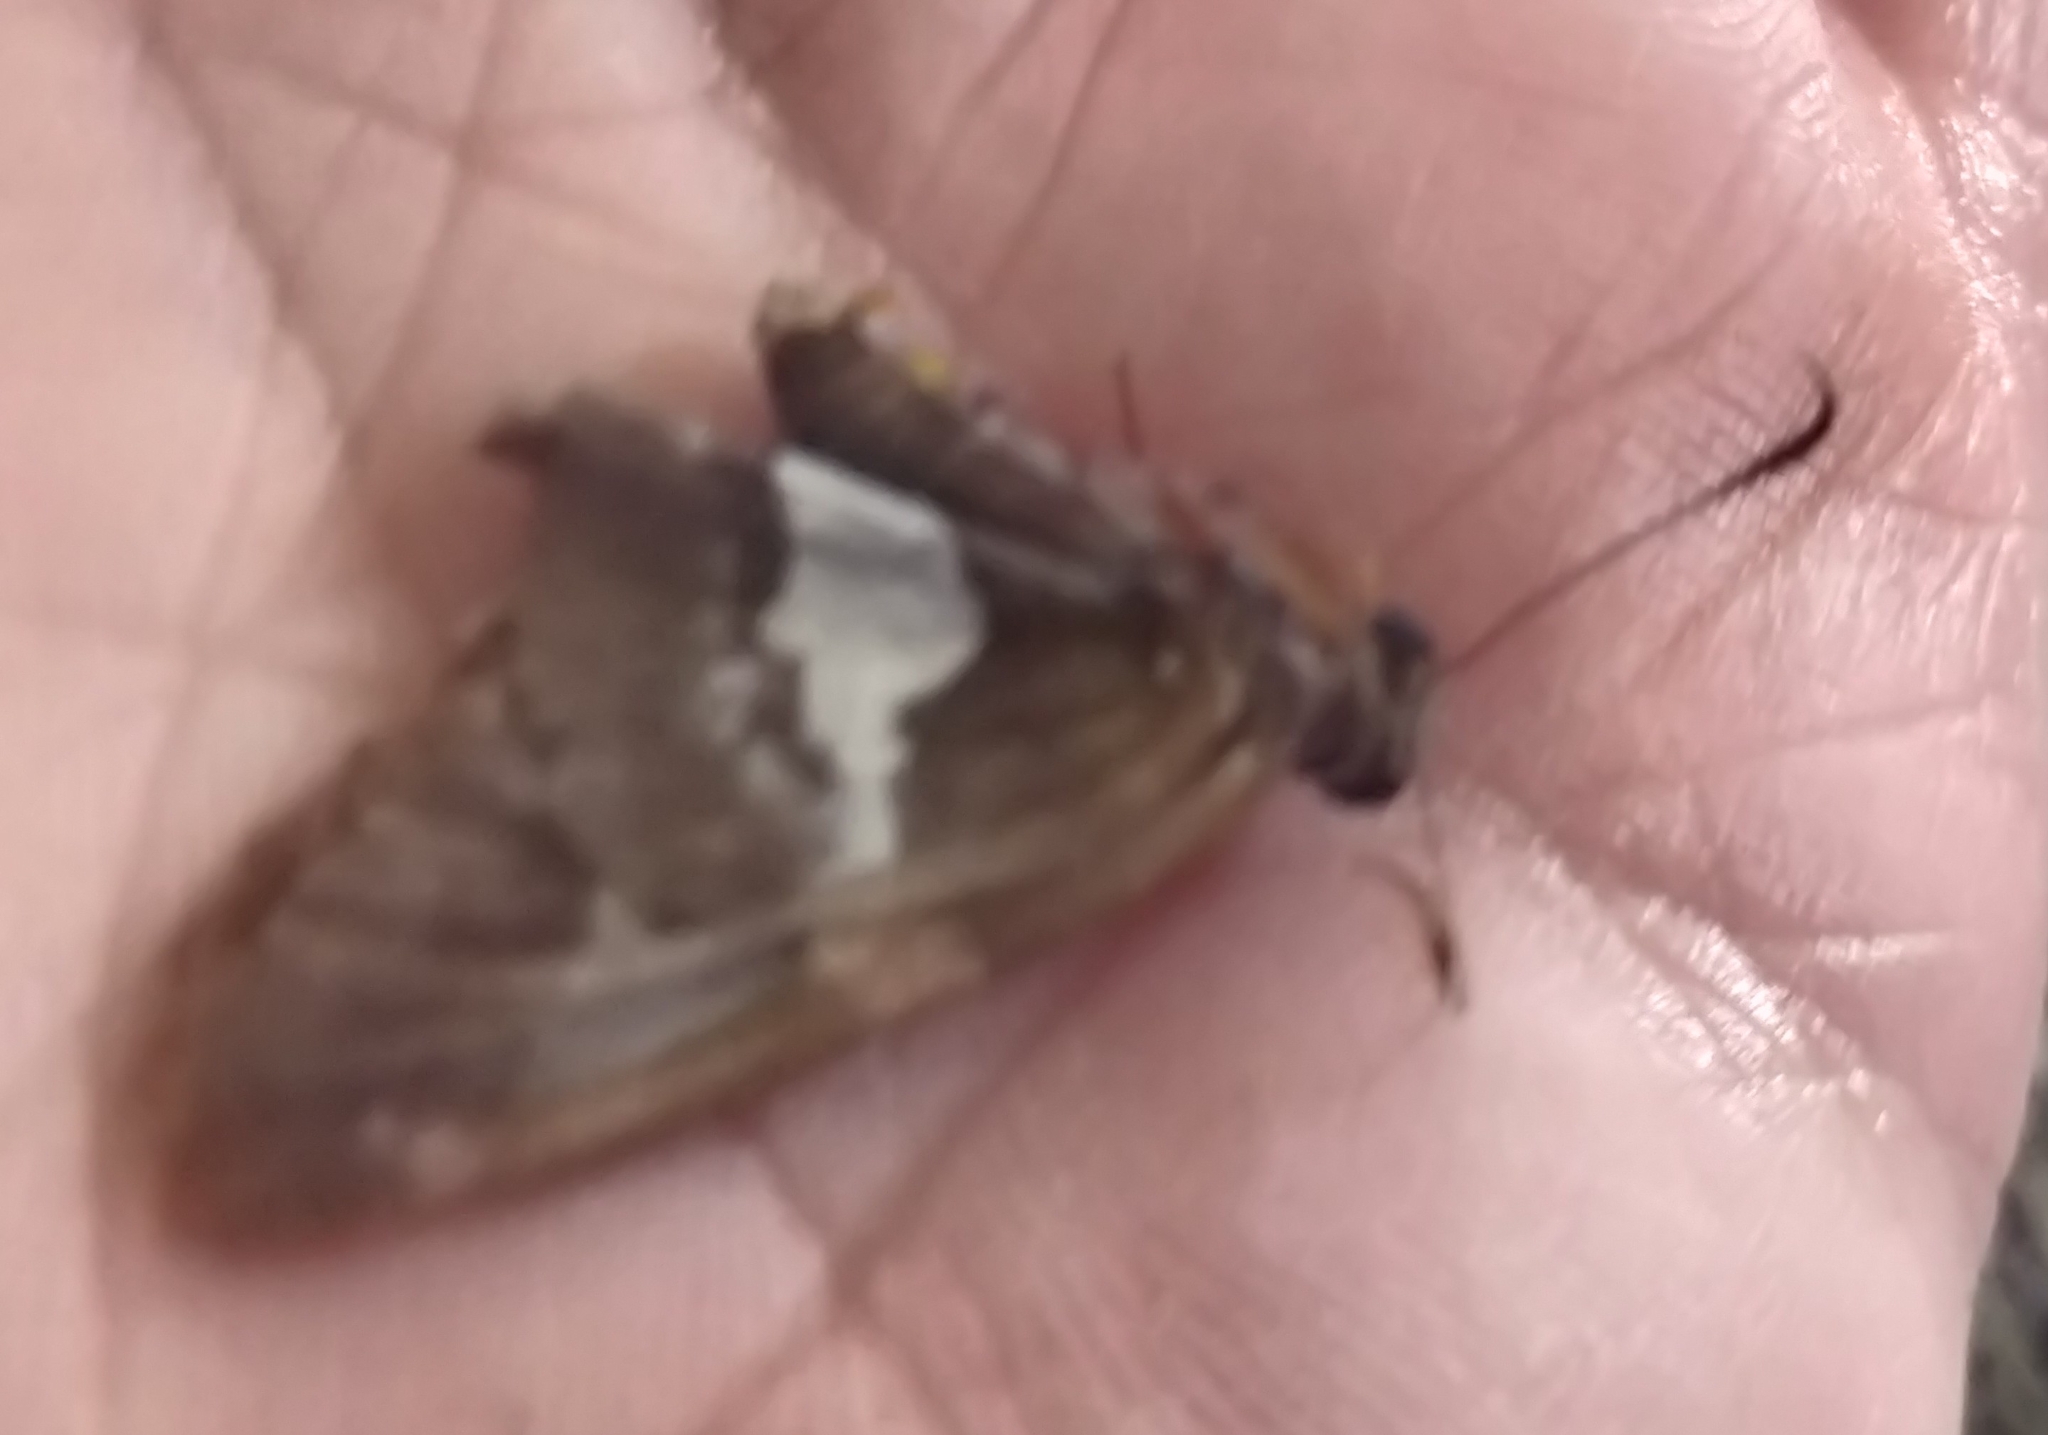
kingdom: Animalia
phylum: Arthropoda
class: Insecta
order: Lepidoptera
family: Hesperiidae
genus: Epargyreus
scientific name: Epargyreus clarus
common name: Silver-spotted skipper
